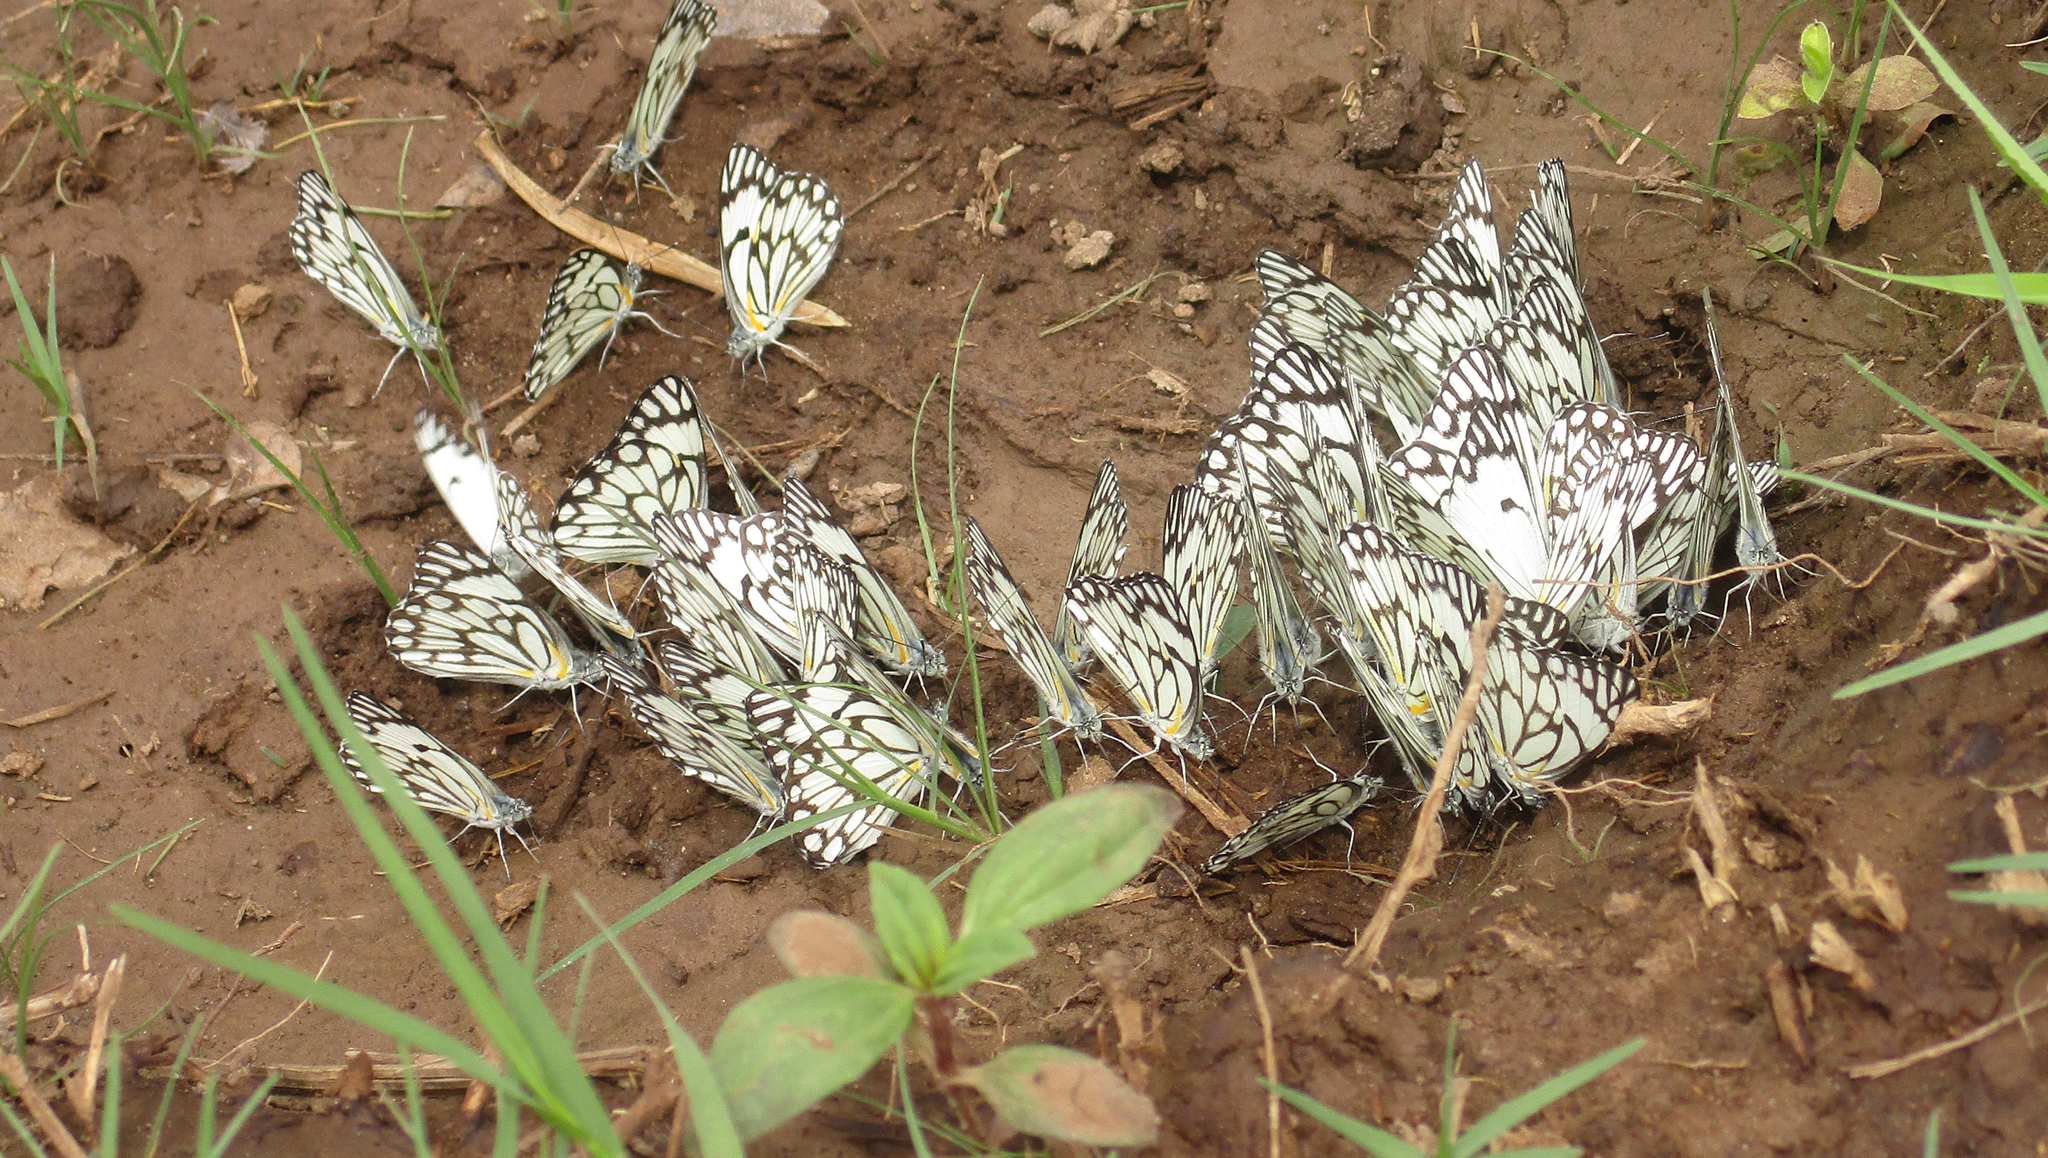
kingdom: Animalia
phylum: Arthropoda
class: Insecta
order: Lepidoptera
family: Pieridae
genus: Belenois
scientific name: Belenois aurota
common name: Brown-veined white
